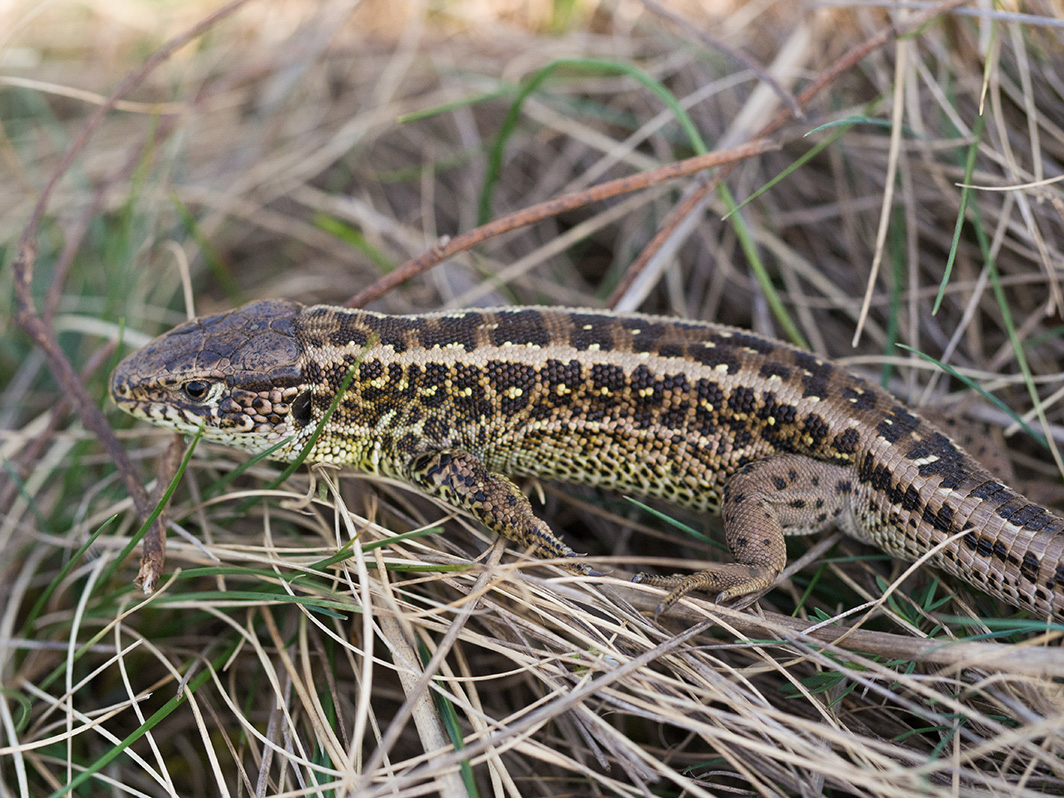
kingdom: Animalia
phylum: Chordata
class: Squamata
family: Lacertidae
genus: Lacerta
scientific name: Lacerta agilis
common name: Sand lizard
